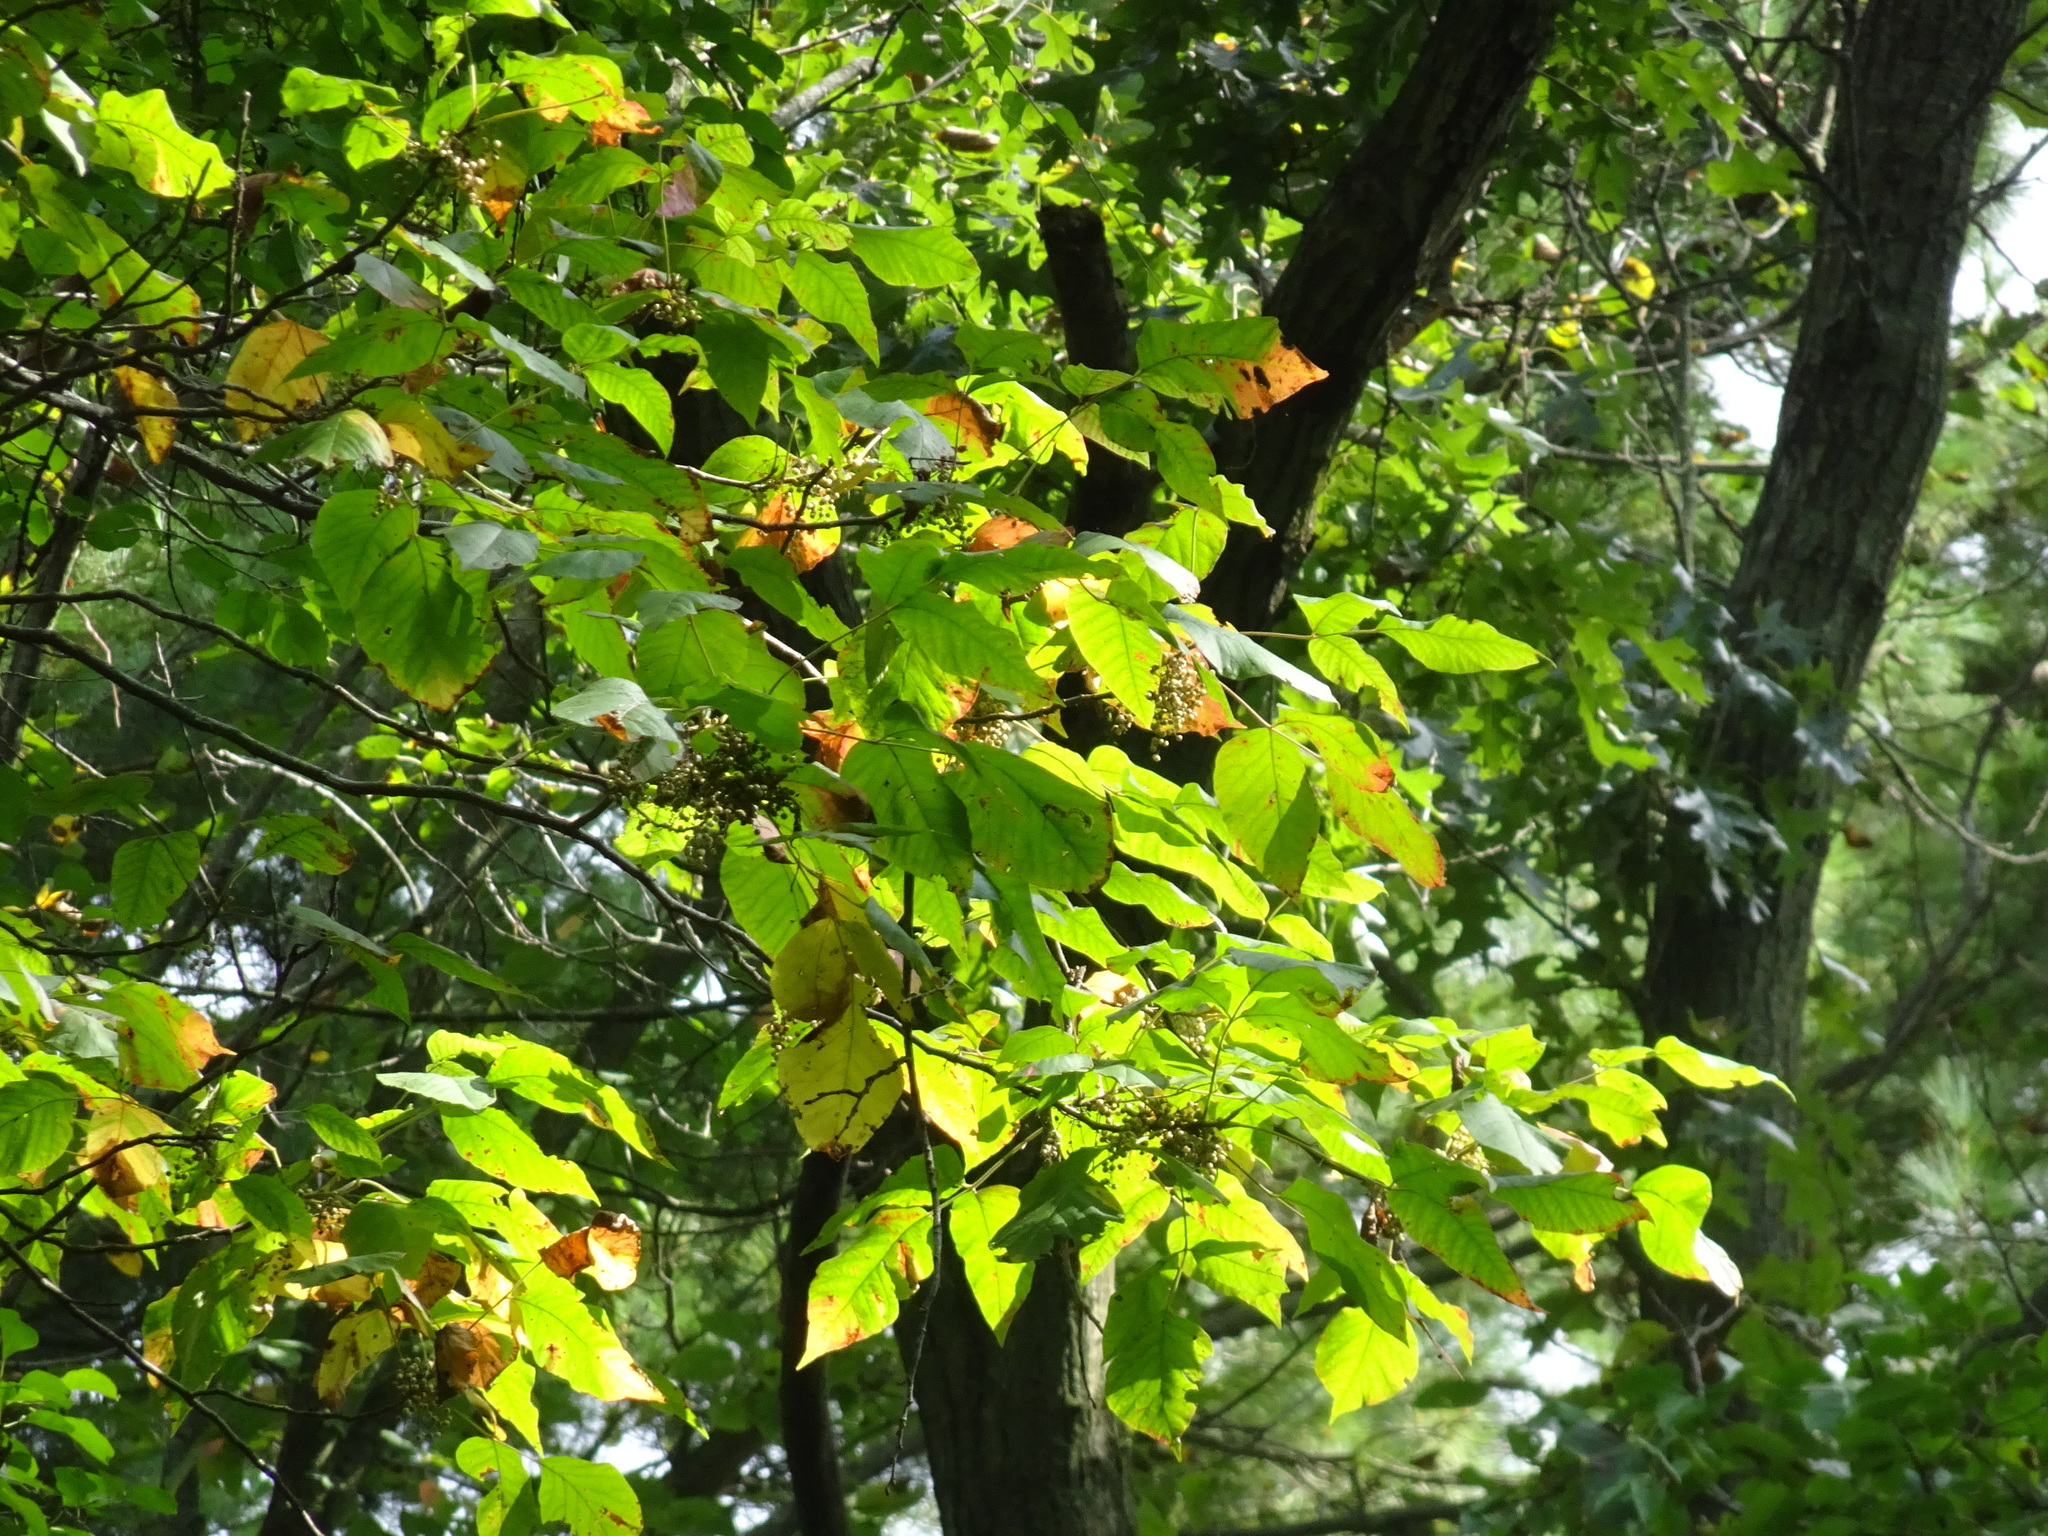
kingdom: Plantae
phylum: Tracheophyta
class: Magnoliopsida
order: Sapindales
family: Anacardiaceae
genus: Toxicodendron
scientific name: Toxicodendron radicans
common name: Poison ivy
